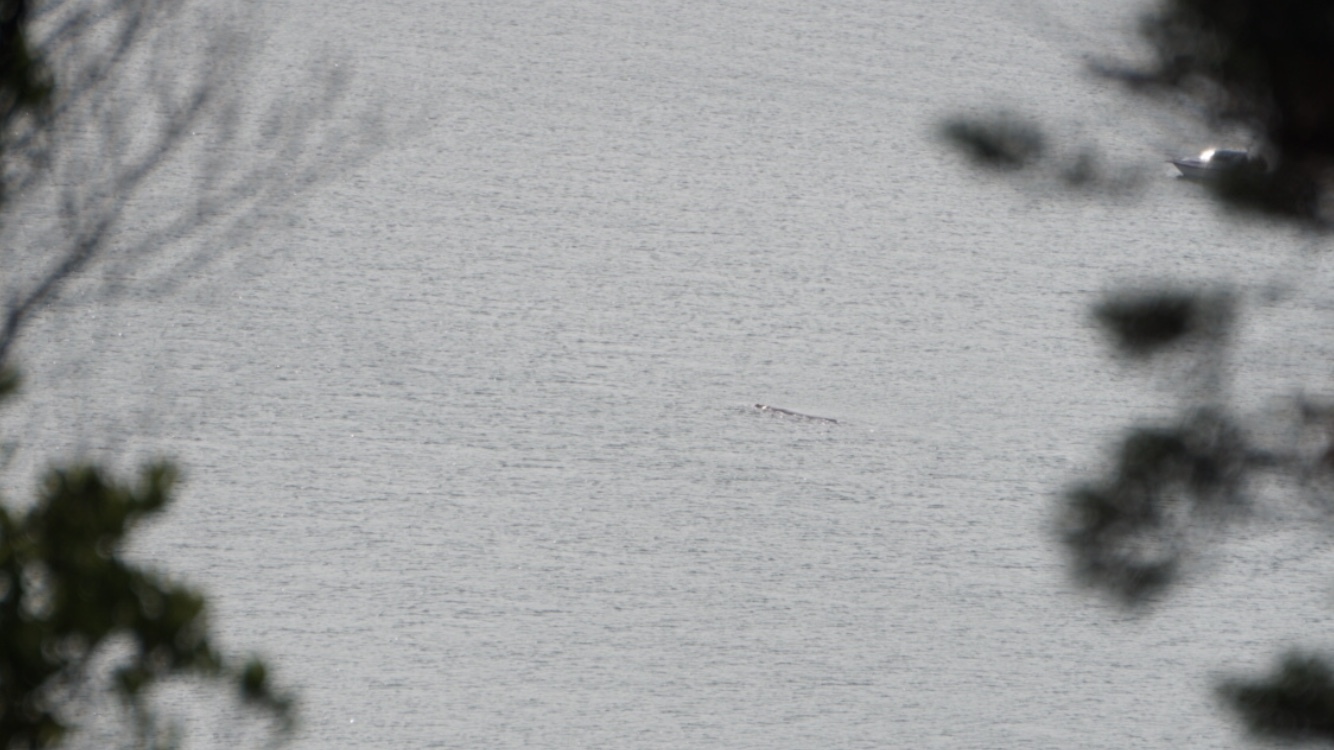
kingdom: Animalia
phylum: Chordata
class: Mammalia
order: Cetacea
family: Balaenidae
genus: Eubalaena
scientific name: Eubalaena australis
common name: Southern right whale
